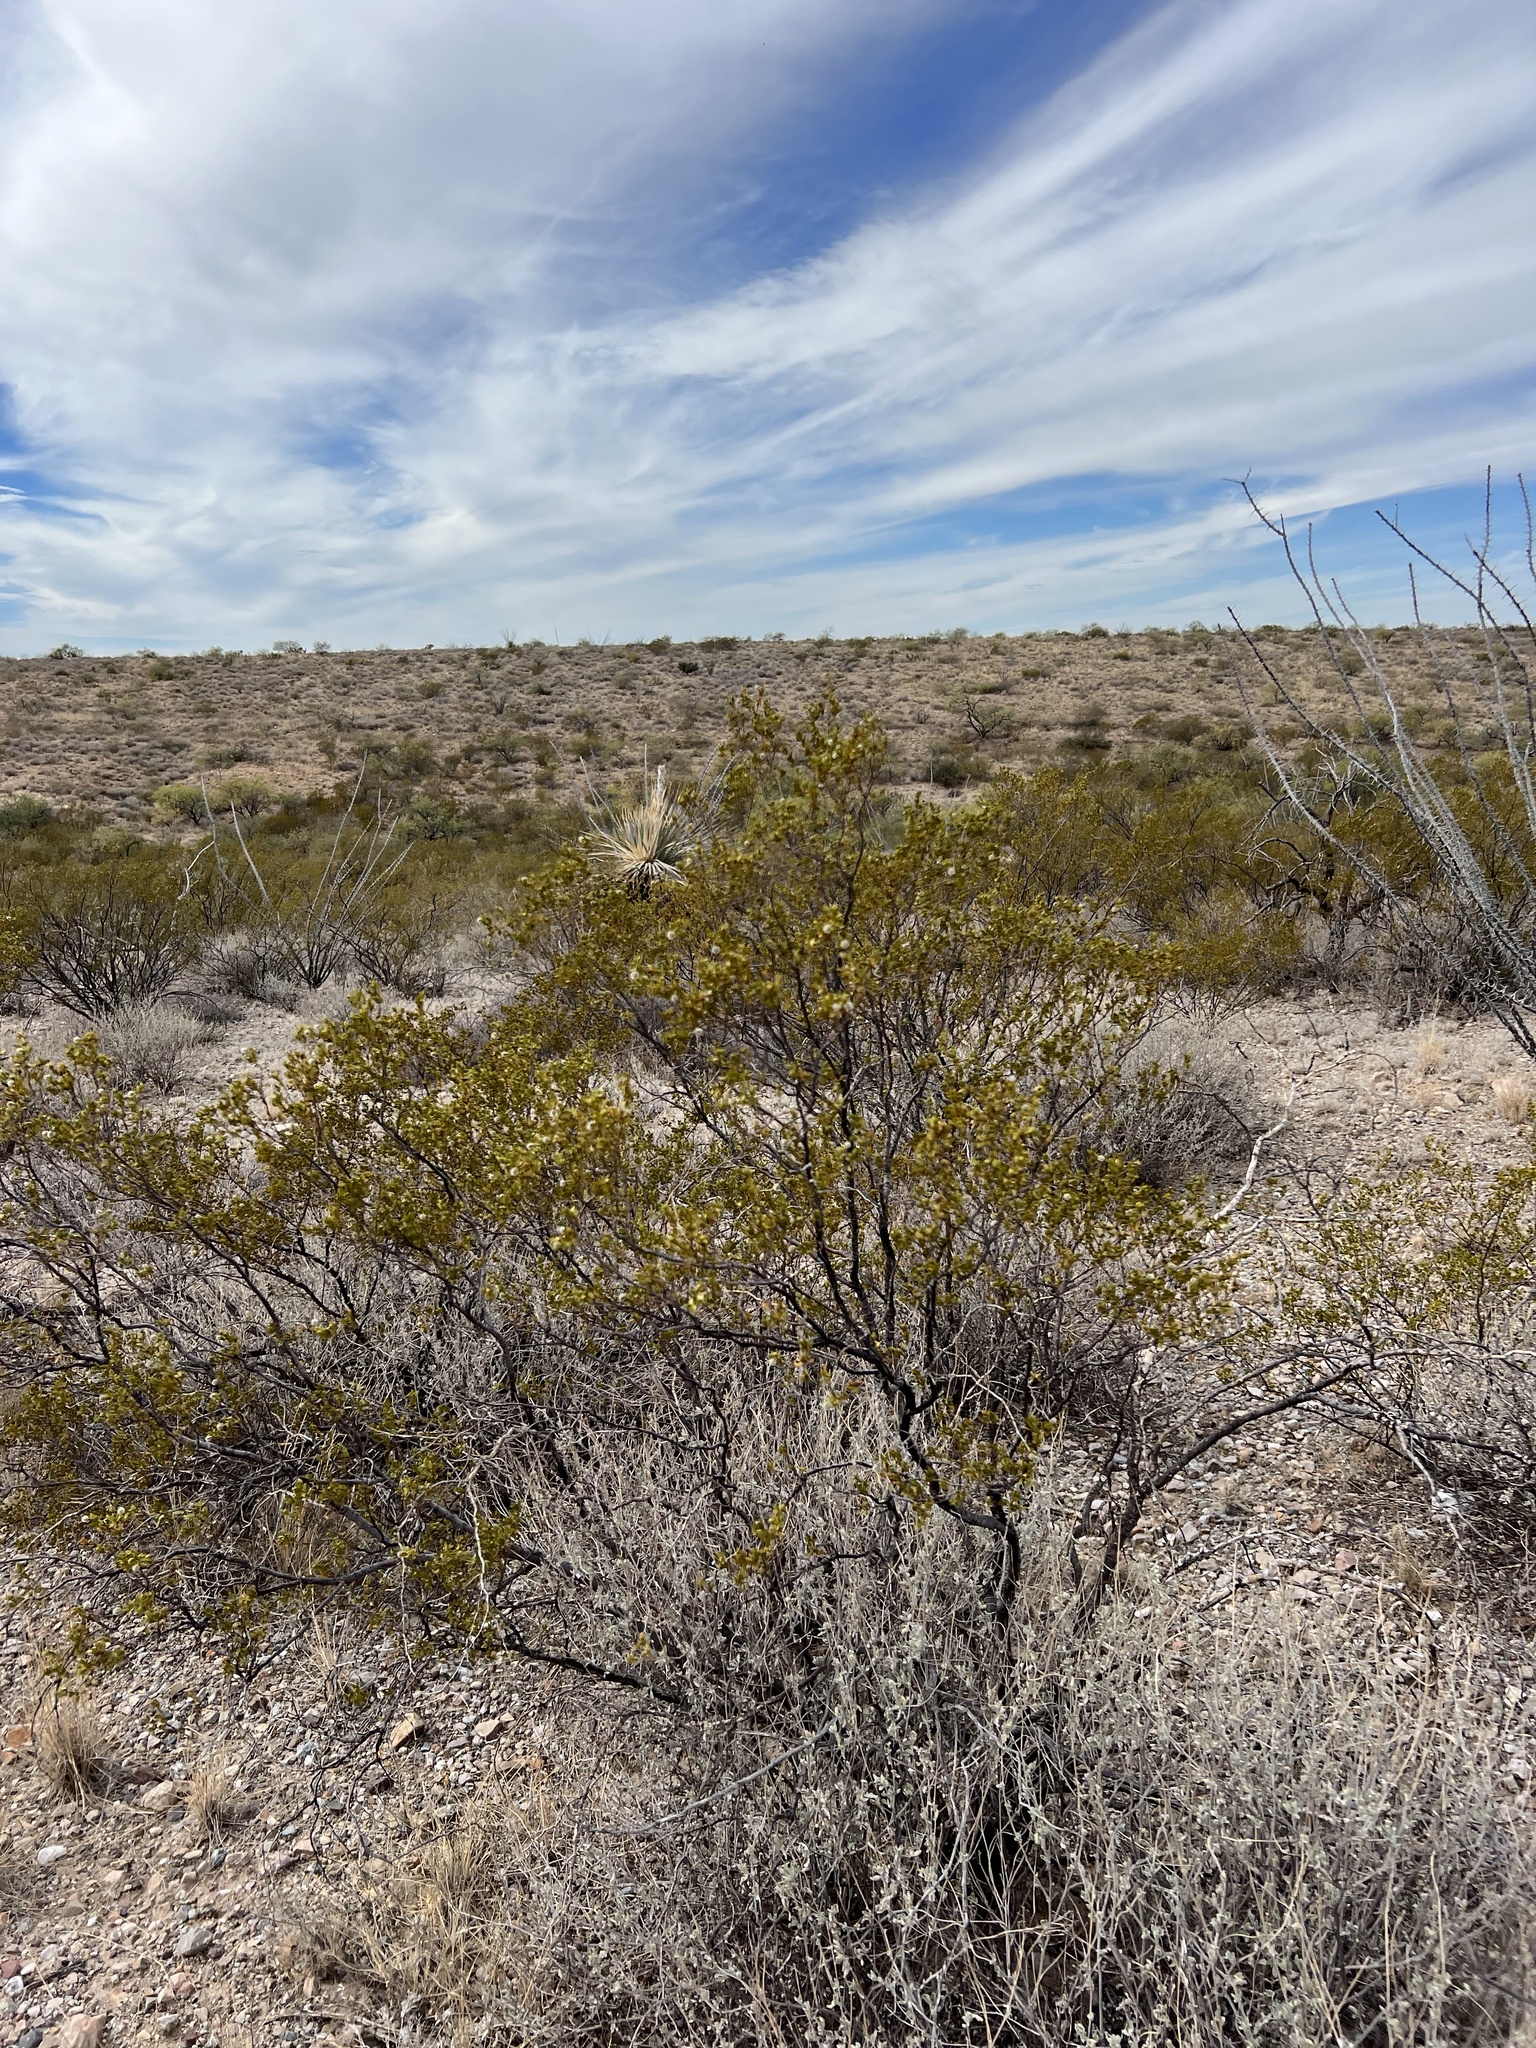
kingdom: Plantae
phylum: Tracheophyta
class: Magnoliopsida
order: Zygophyllales
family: Zygophyllaceae
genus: Larrea
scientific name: Larrea tridentata
